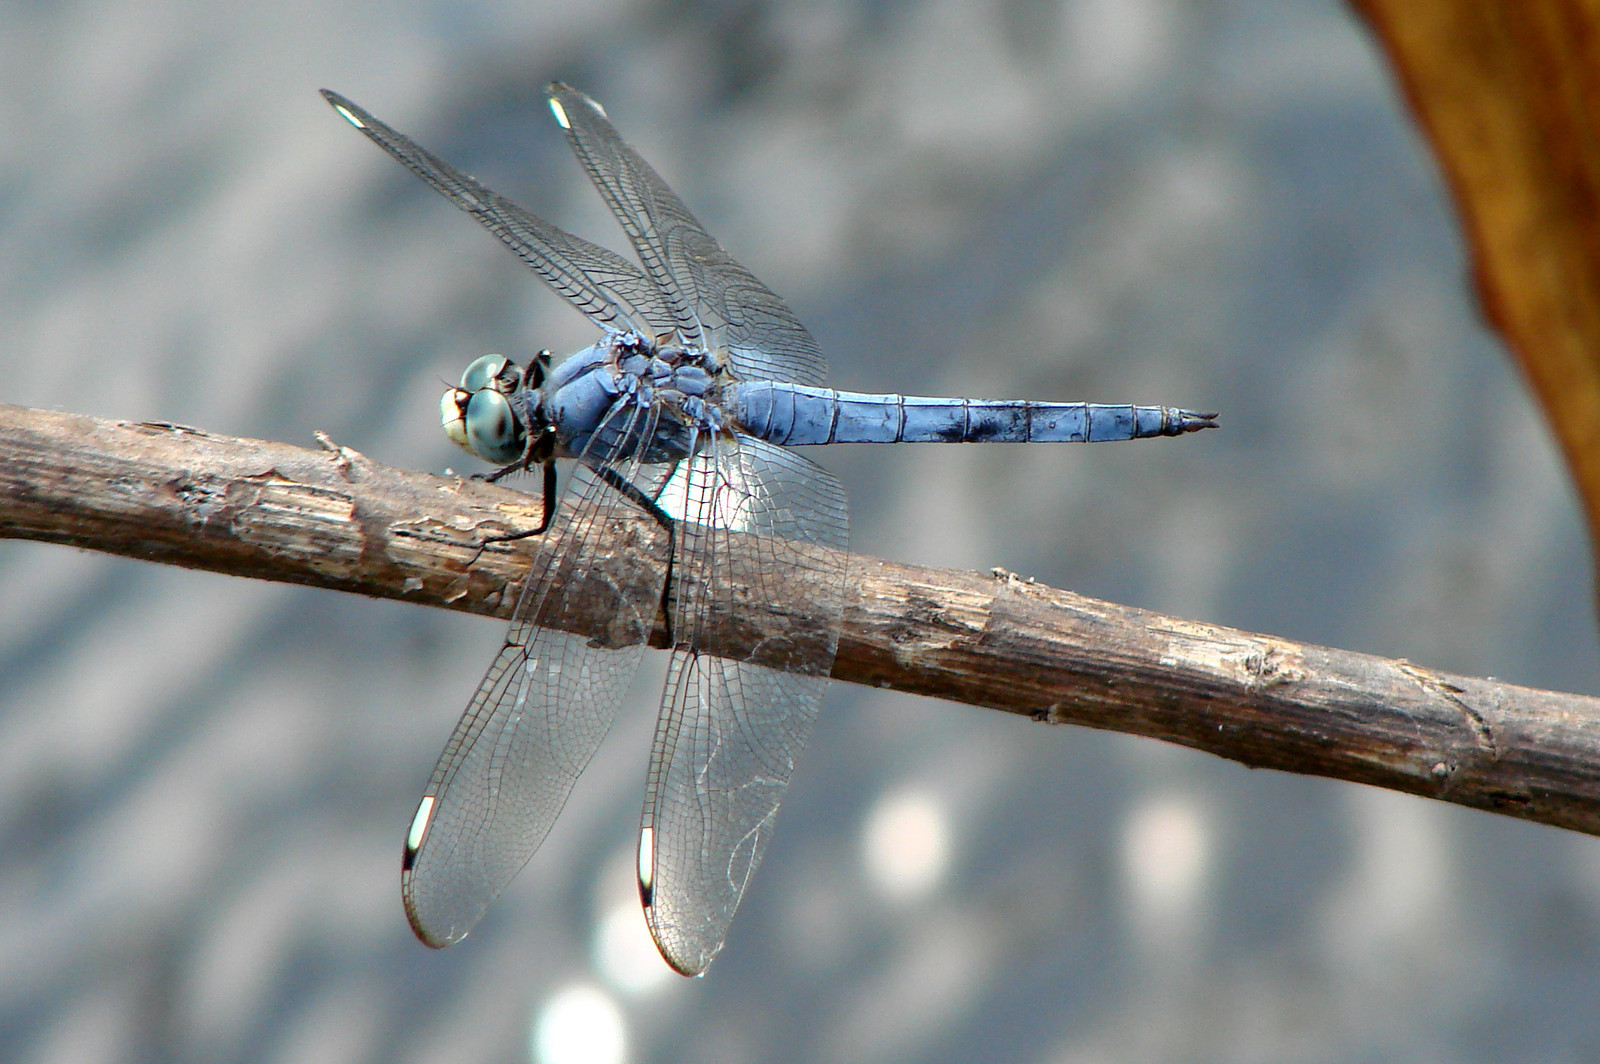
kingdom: Animalia
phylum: Arthropoda
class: Insecta
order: Odonata
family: Libellulidae
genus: Libellula
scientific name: Libellula comanche
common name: Comanche skimmer
